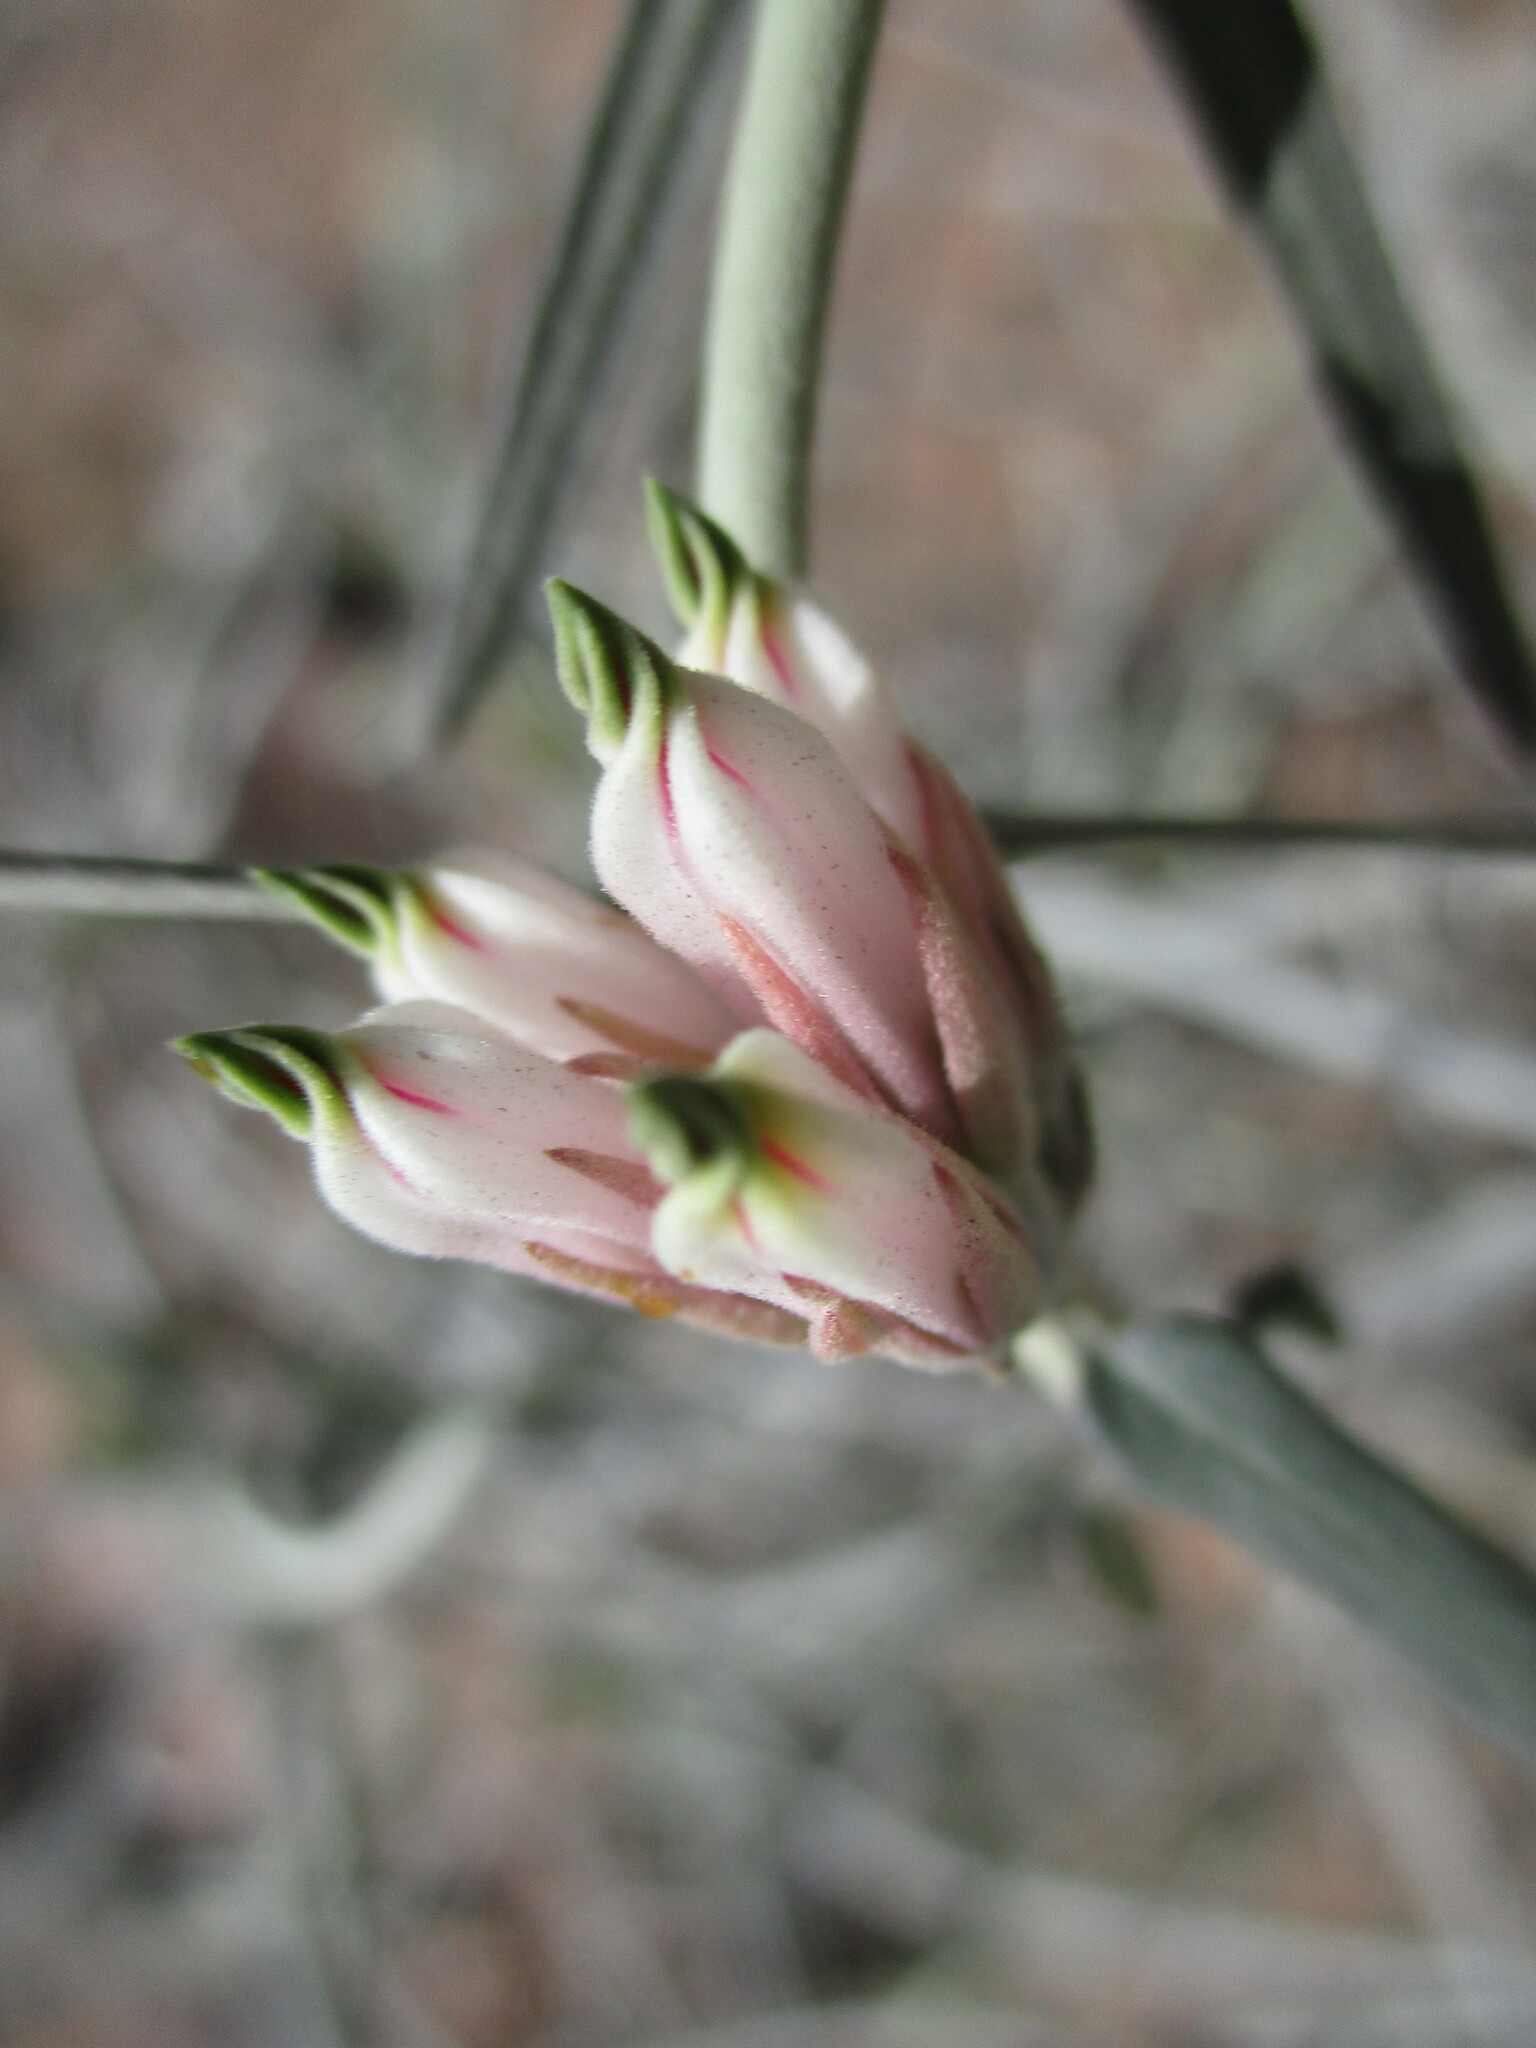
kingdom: Plantae
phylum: Tracheophyta
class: Magnoliopsida
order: Gentianales
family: Apocynaceae
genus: Microloma
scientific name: Microloma incanum
